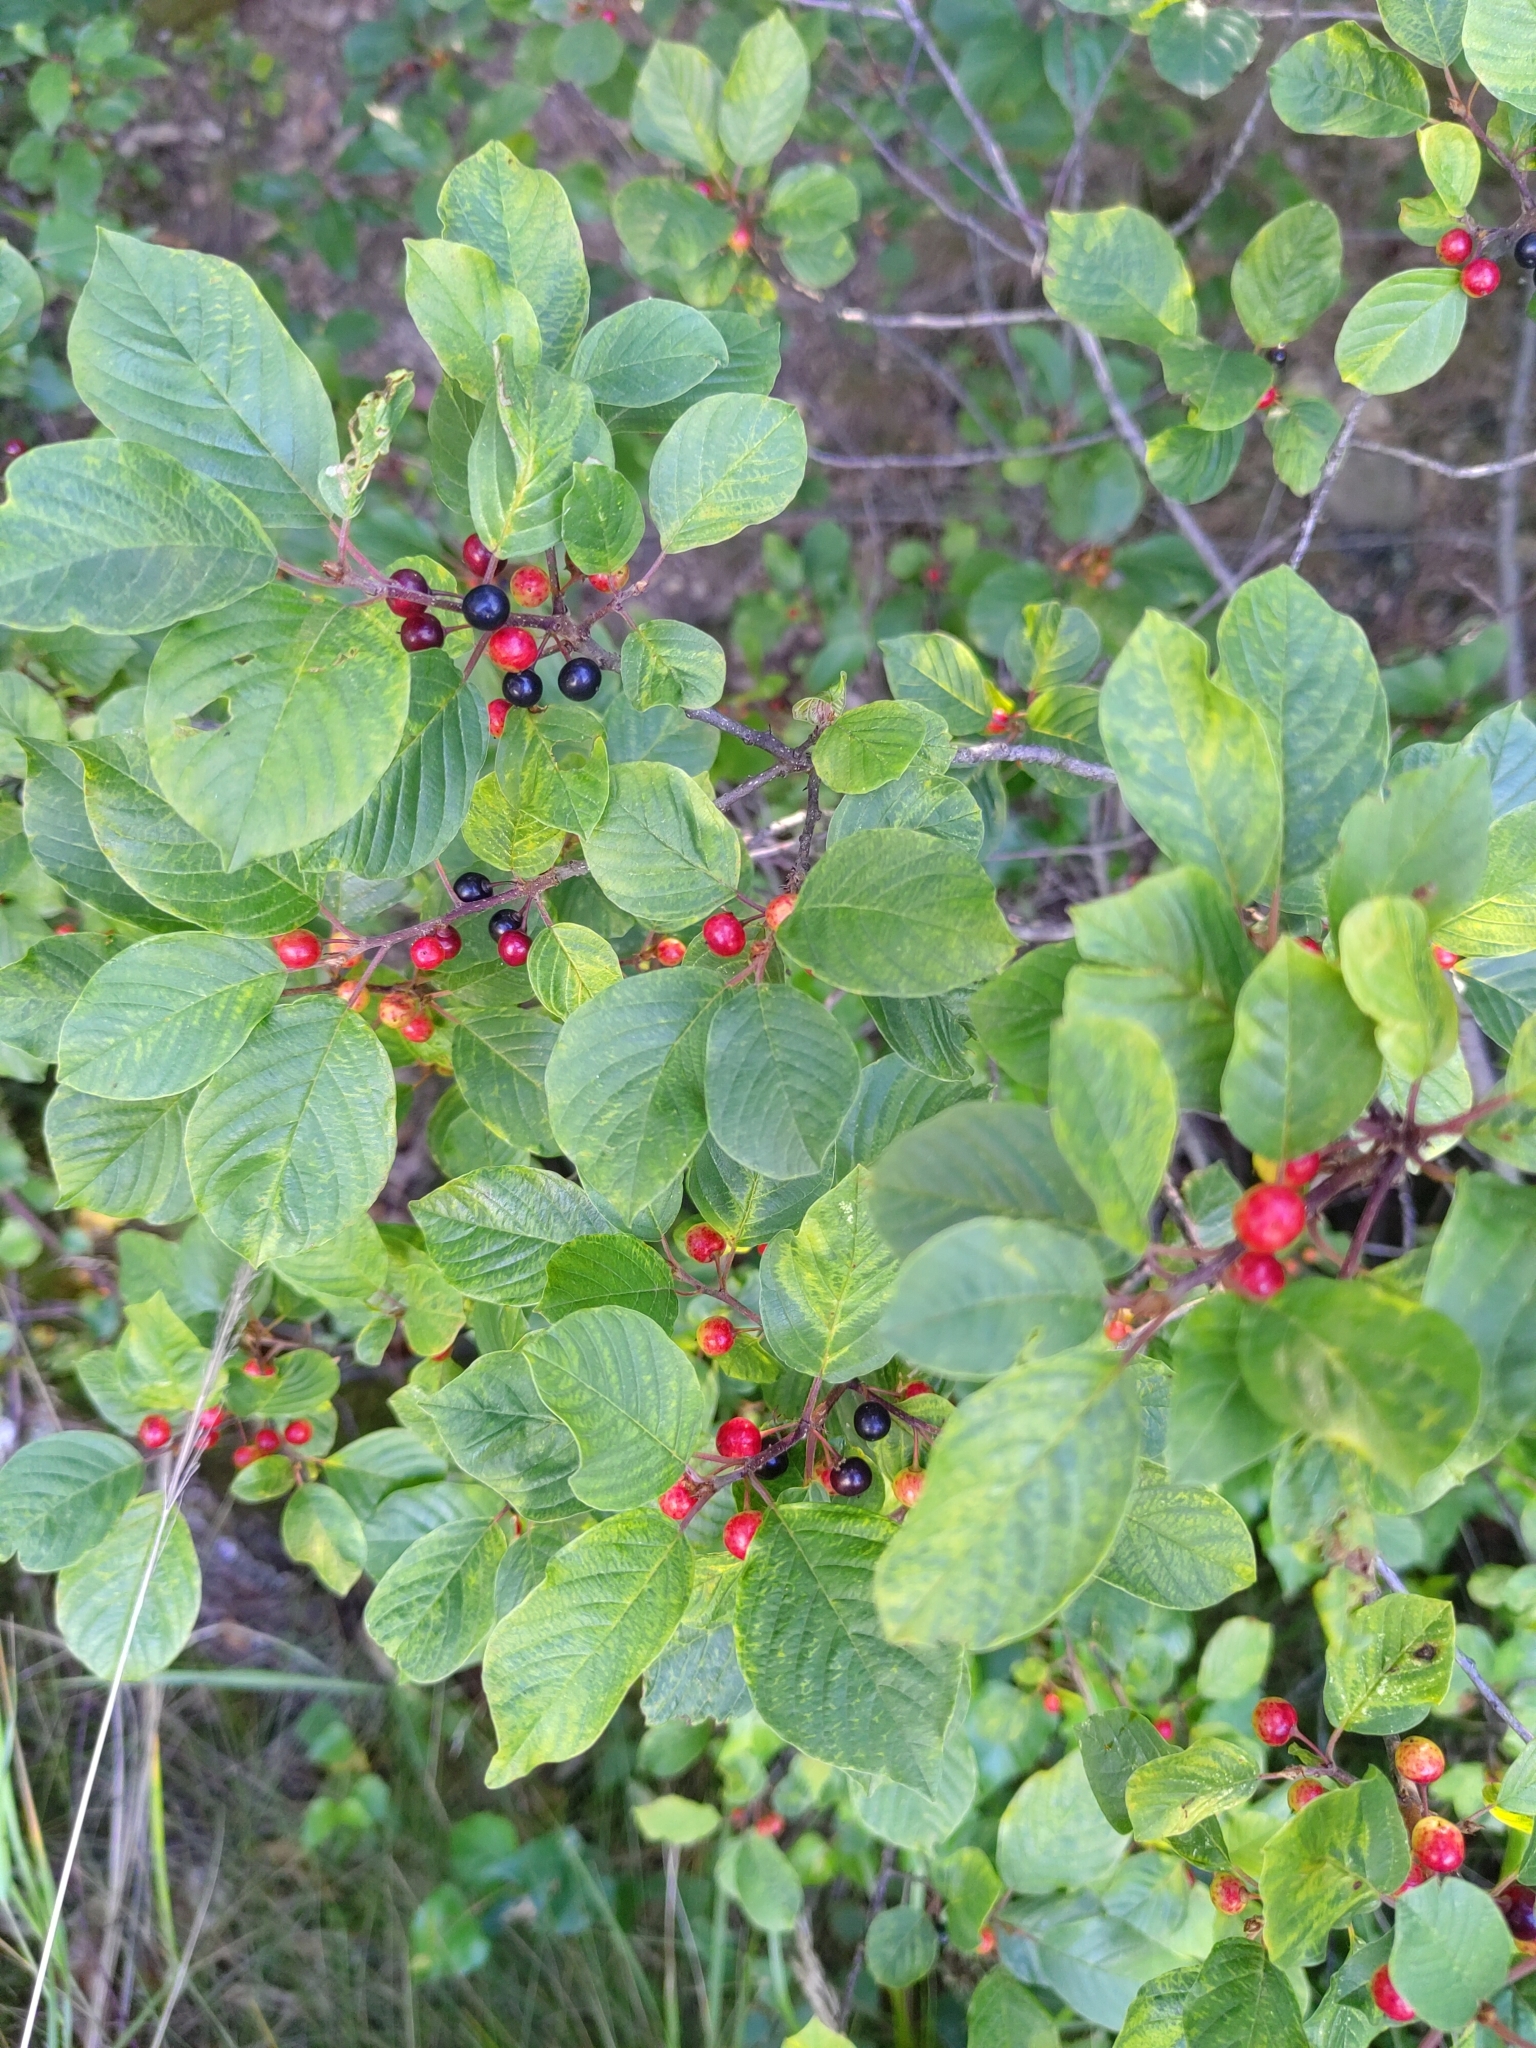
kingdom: Plantae
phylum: Tracheophyta
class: Magnoliopsida
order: Rosales
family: Rhamnaceae
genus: Frangula
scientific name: Frangula alnus
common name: Alder buckthorn
